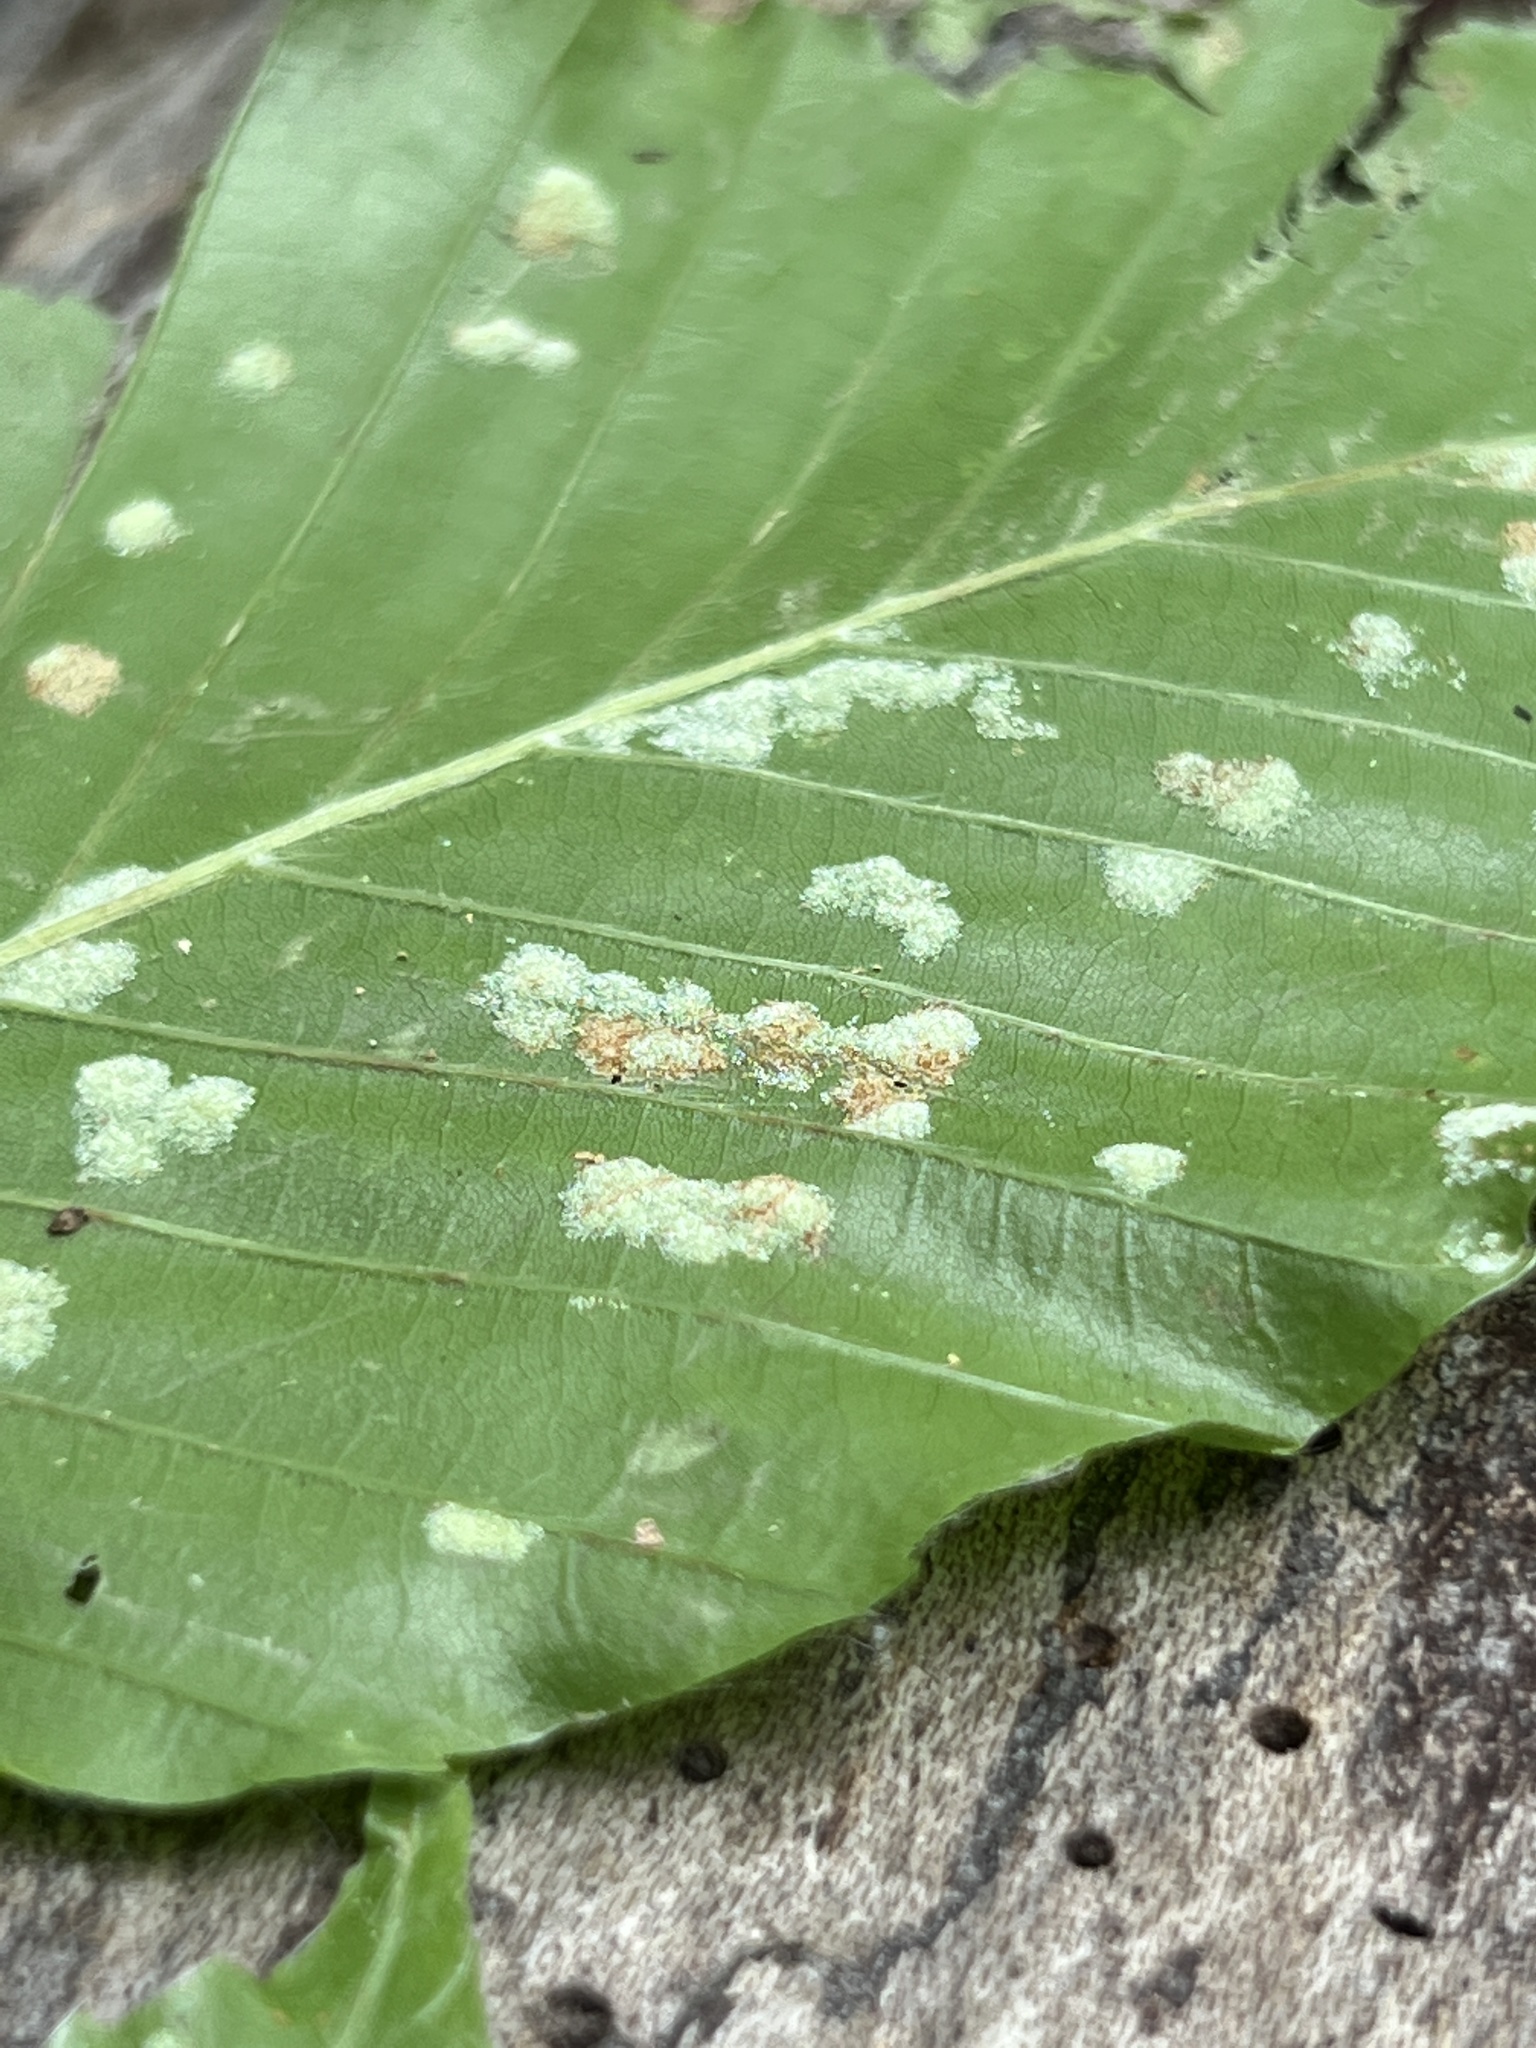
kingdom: Animalia
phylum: Arthropoda
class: Arachnida
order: Trombidiformes
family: Eriophyidae
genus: Acalitus
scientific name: Acalitus
